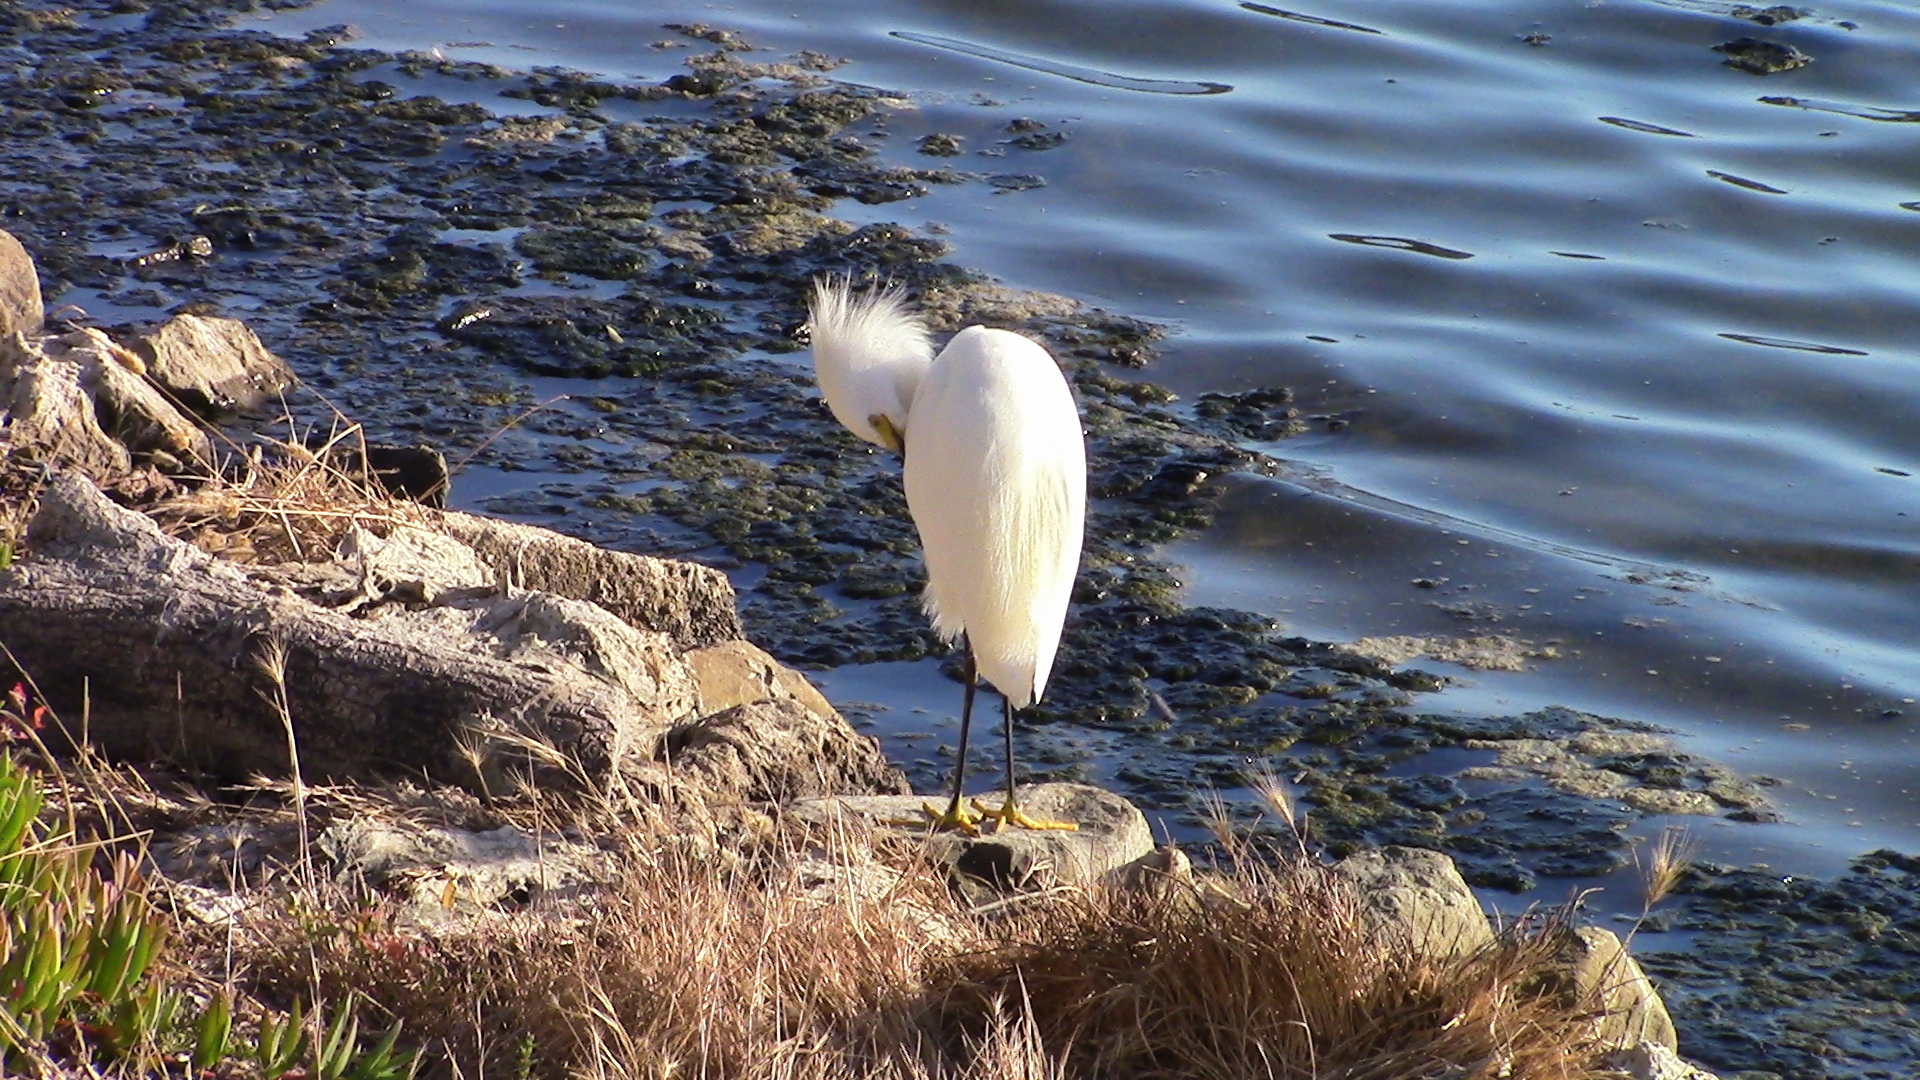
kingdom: Animalia
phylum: Chordata
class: Aves
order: Pelecaniformes
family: Ardeidae
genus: Egretta
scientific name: Egretta thula
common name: Snowy egret
